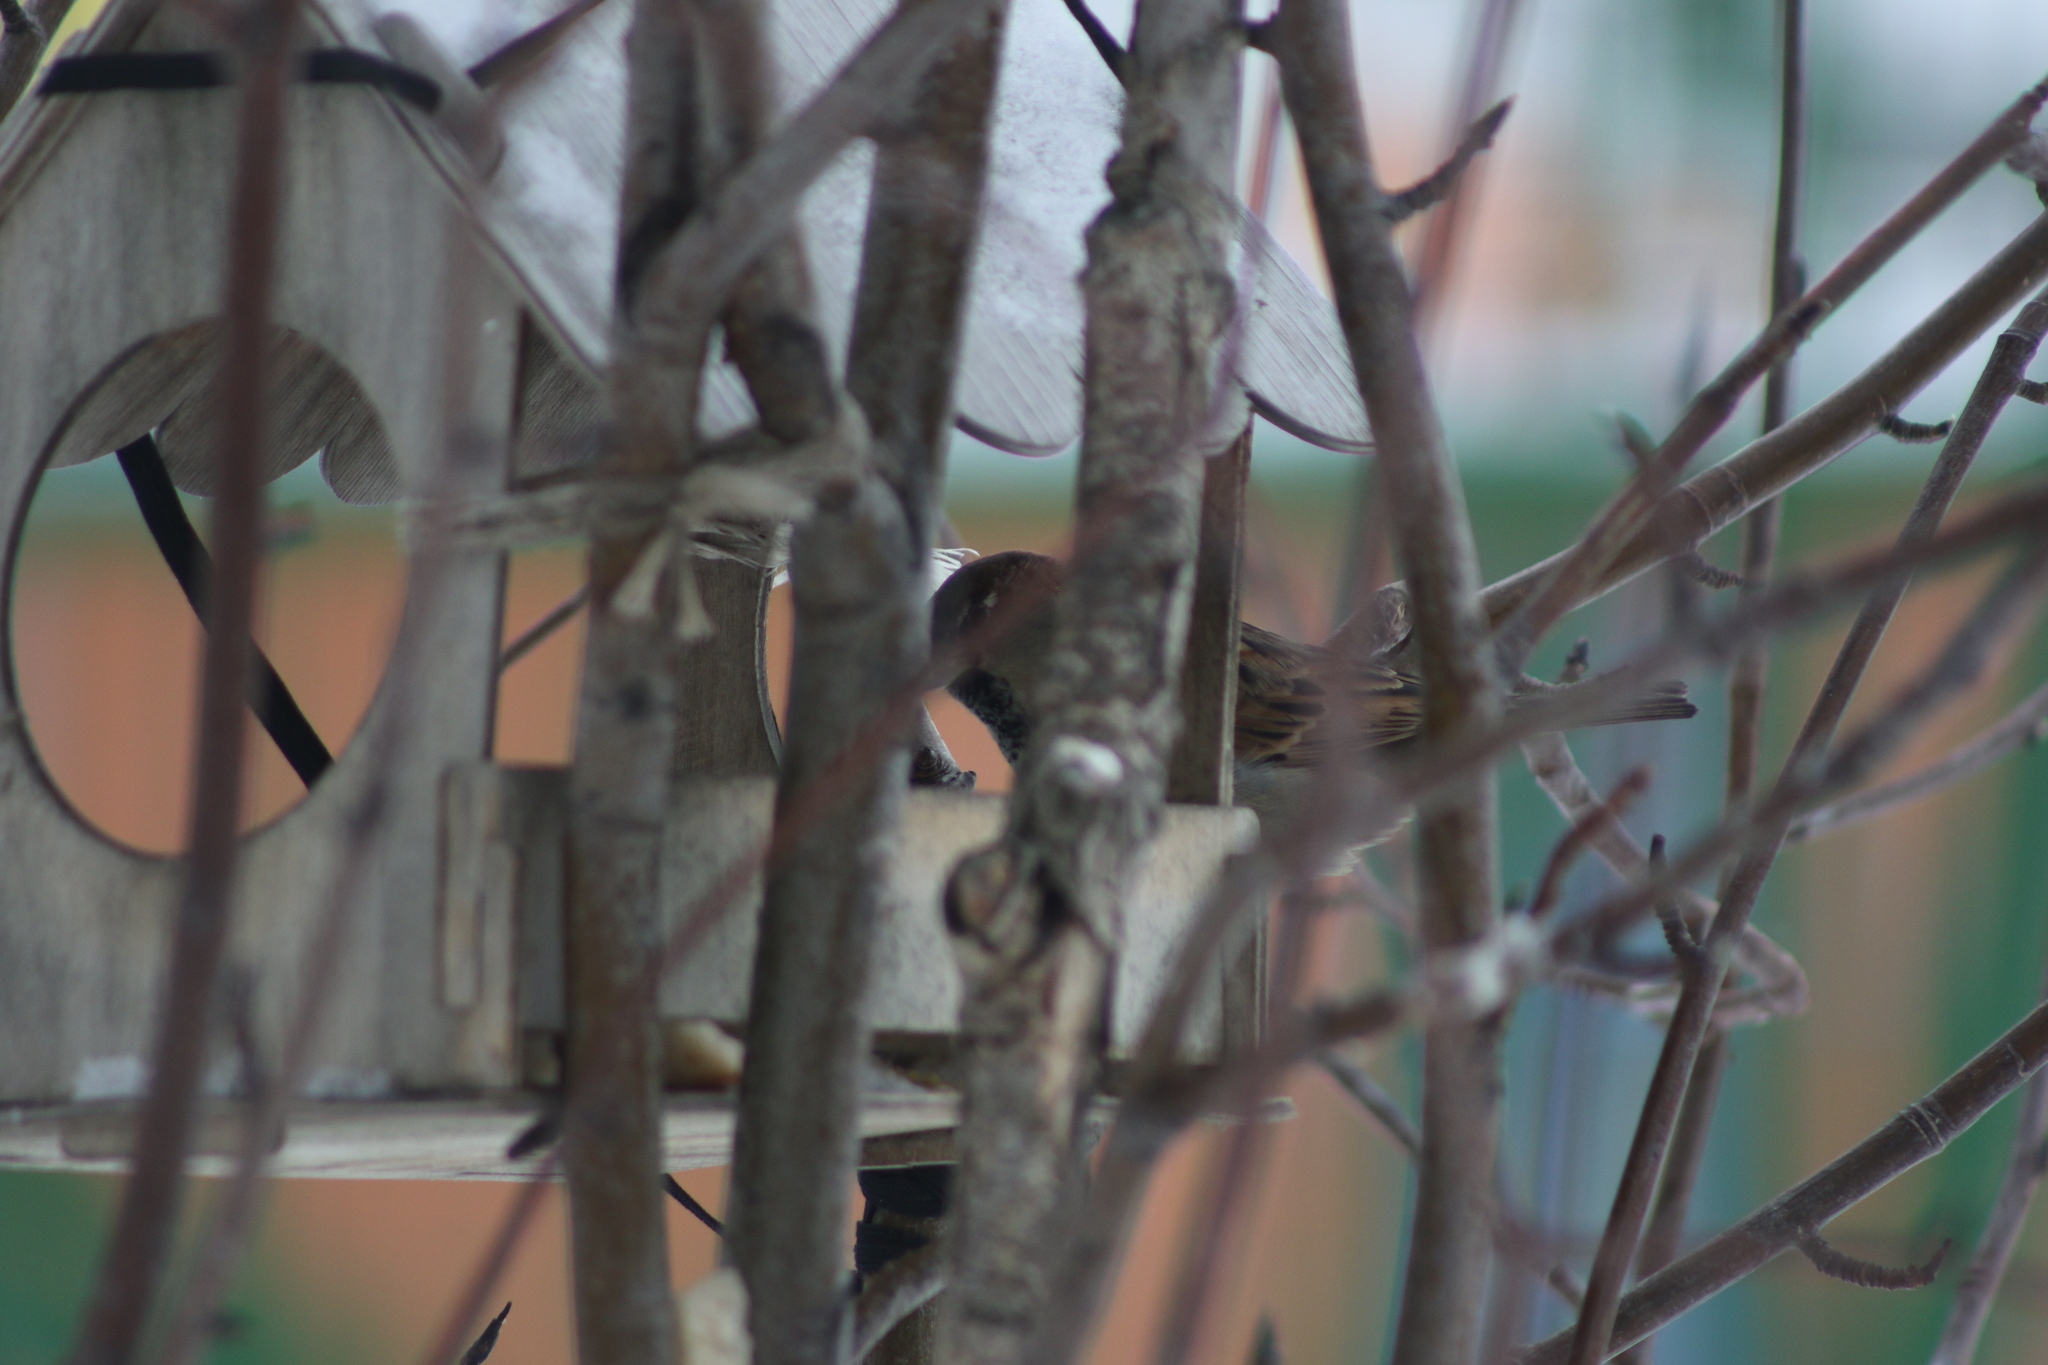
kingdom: Animalia
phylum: Chordata
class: Aves
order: Passeriformes
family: Passeridae
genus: Passer
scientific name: Passer domesticus
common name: House sparrow
